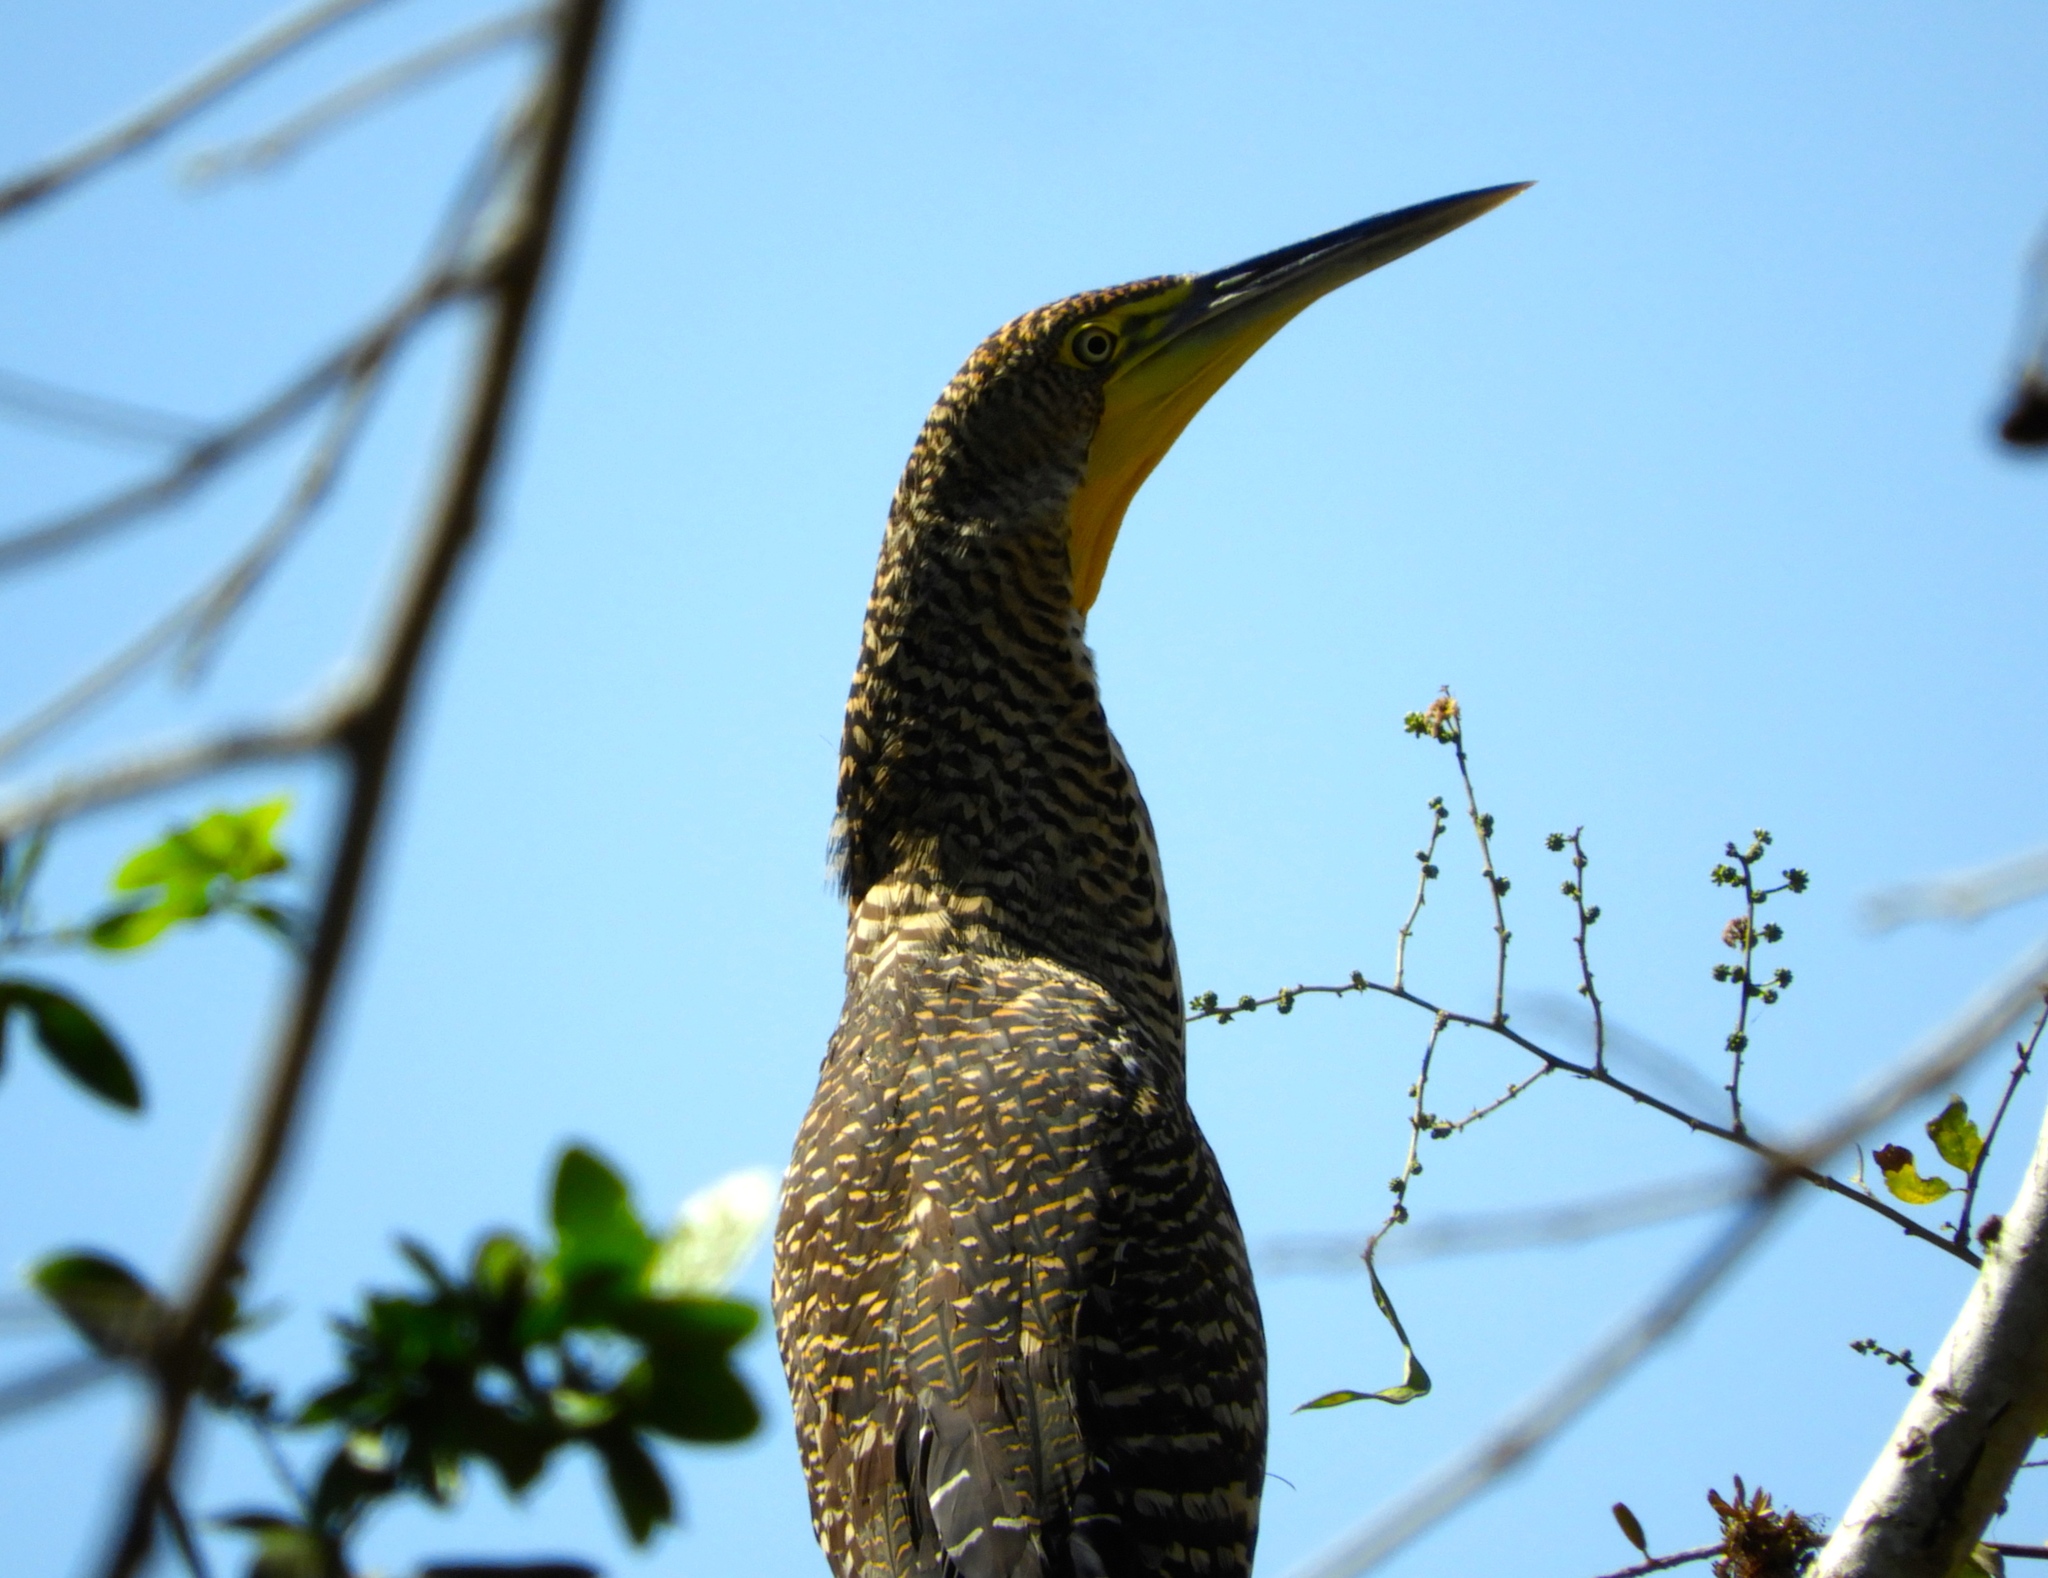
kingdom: Animalia
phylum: Chordata
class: Aves
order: Pelecaniformes
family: Ardeidae
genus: Tigrisoma
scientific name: Tigrisoma mexicanum
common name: Bare-throated tiger-heron
